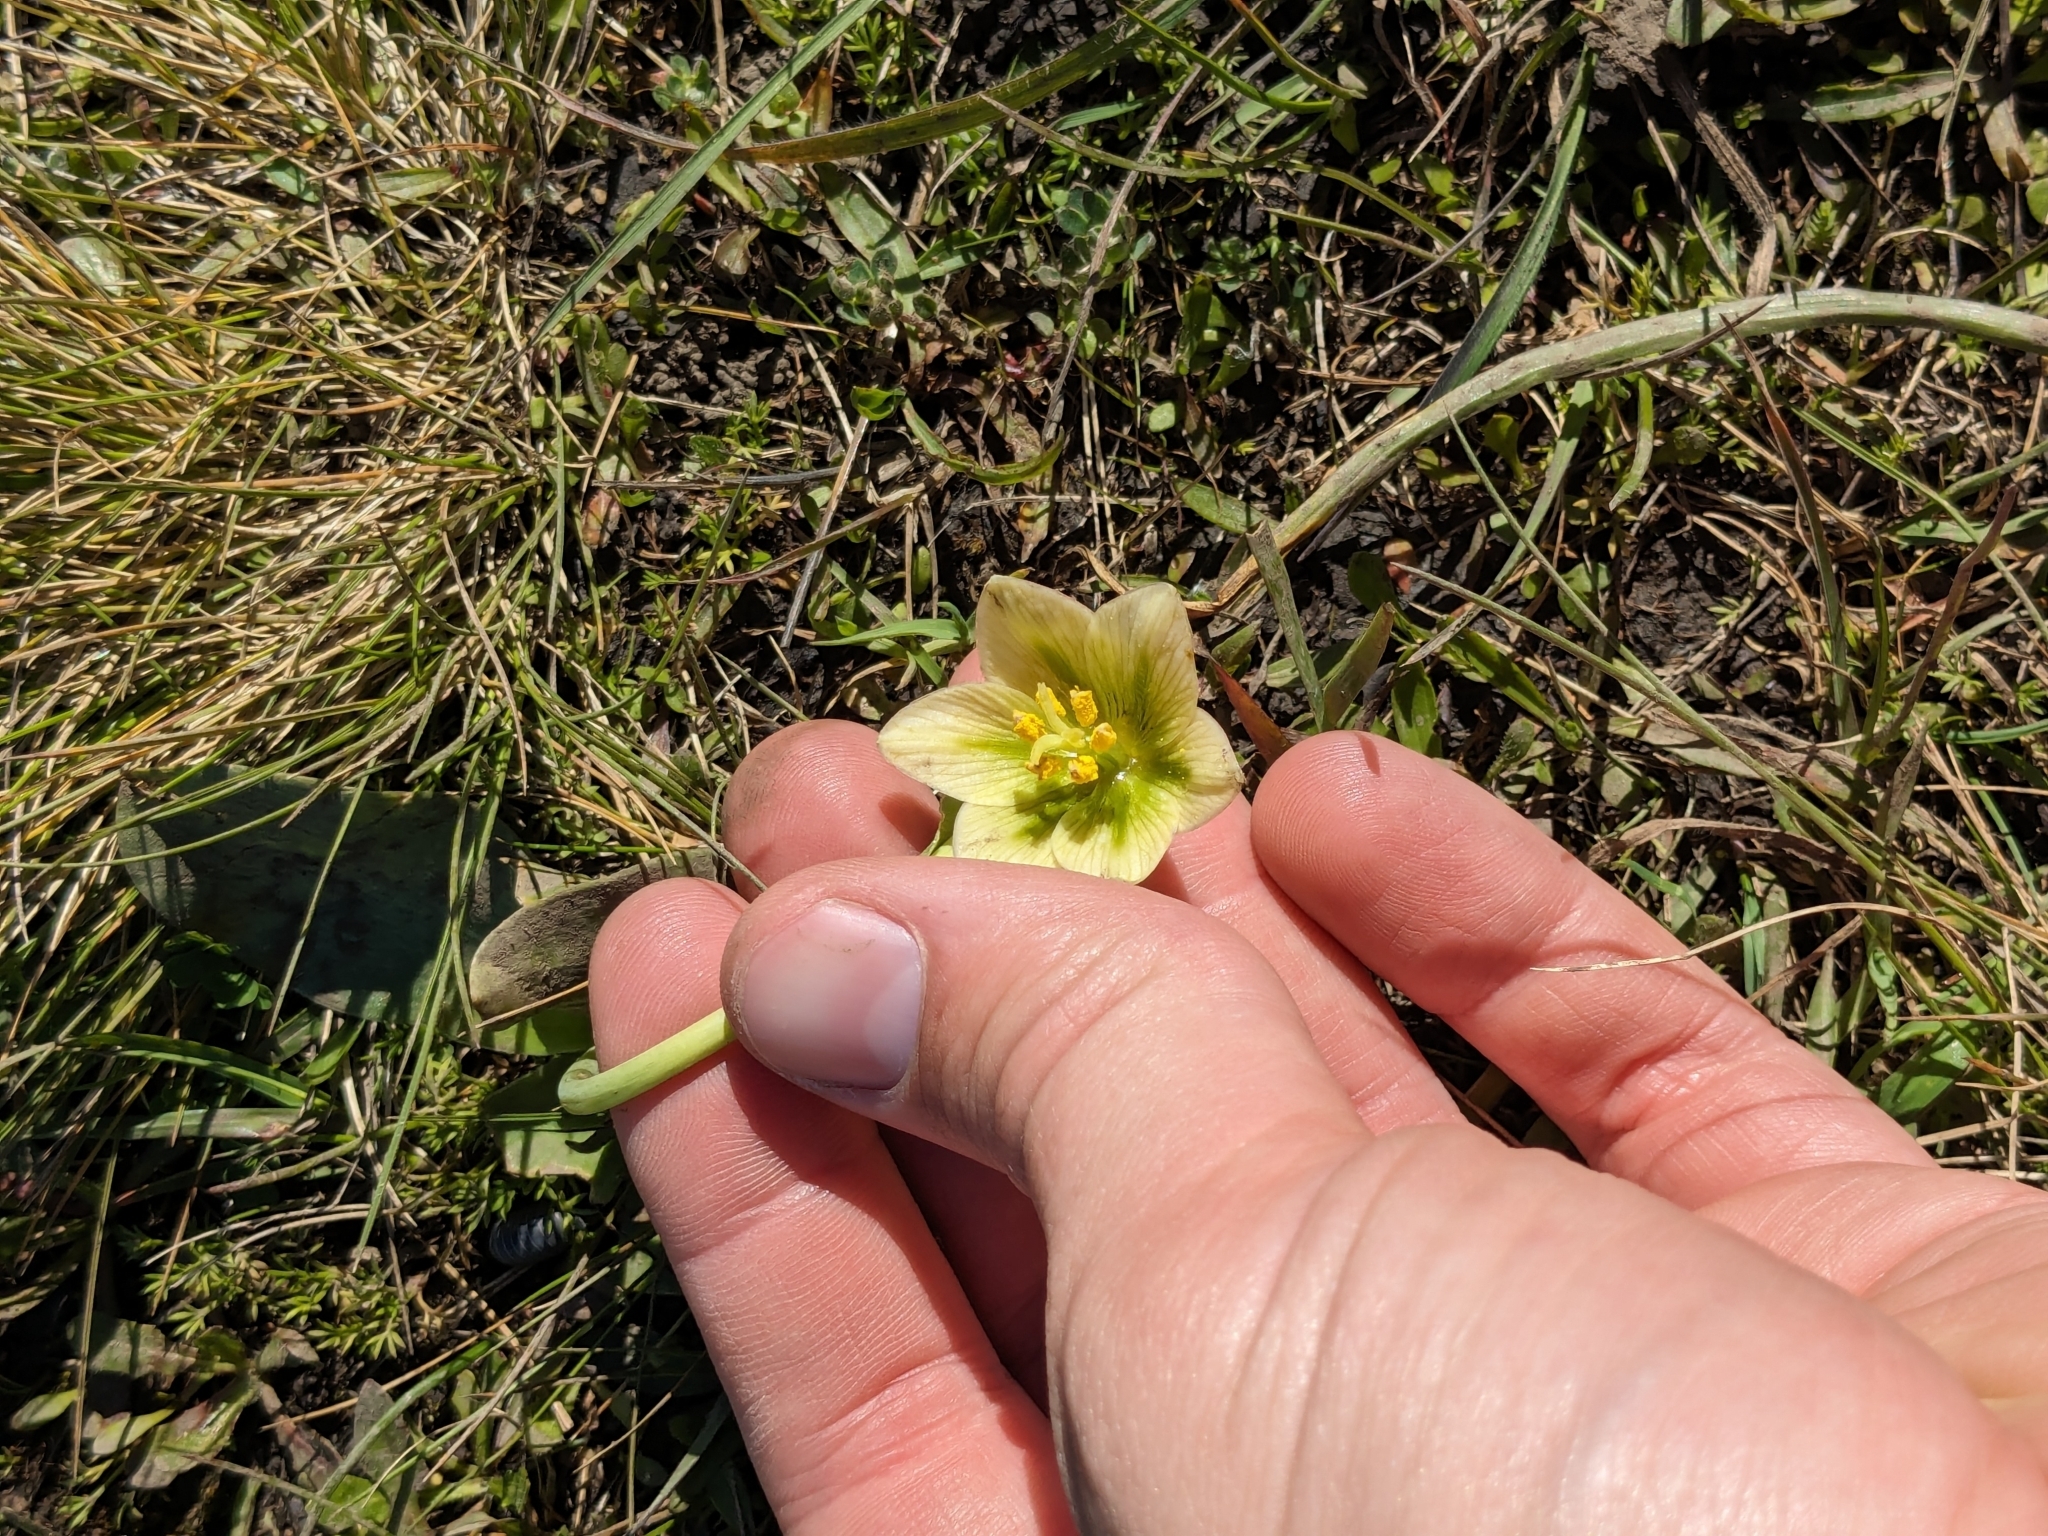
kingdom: Plantae
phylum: Tracheophyta
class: Liliopsida
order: Liliales
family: Liliaceae
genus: Fritillaria
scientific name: Fritillaria liliacea
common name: Fragrant fritillary
